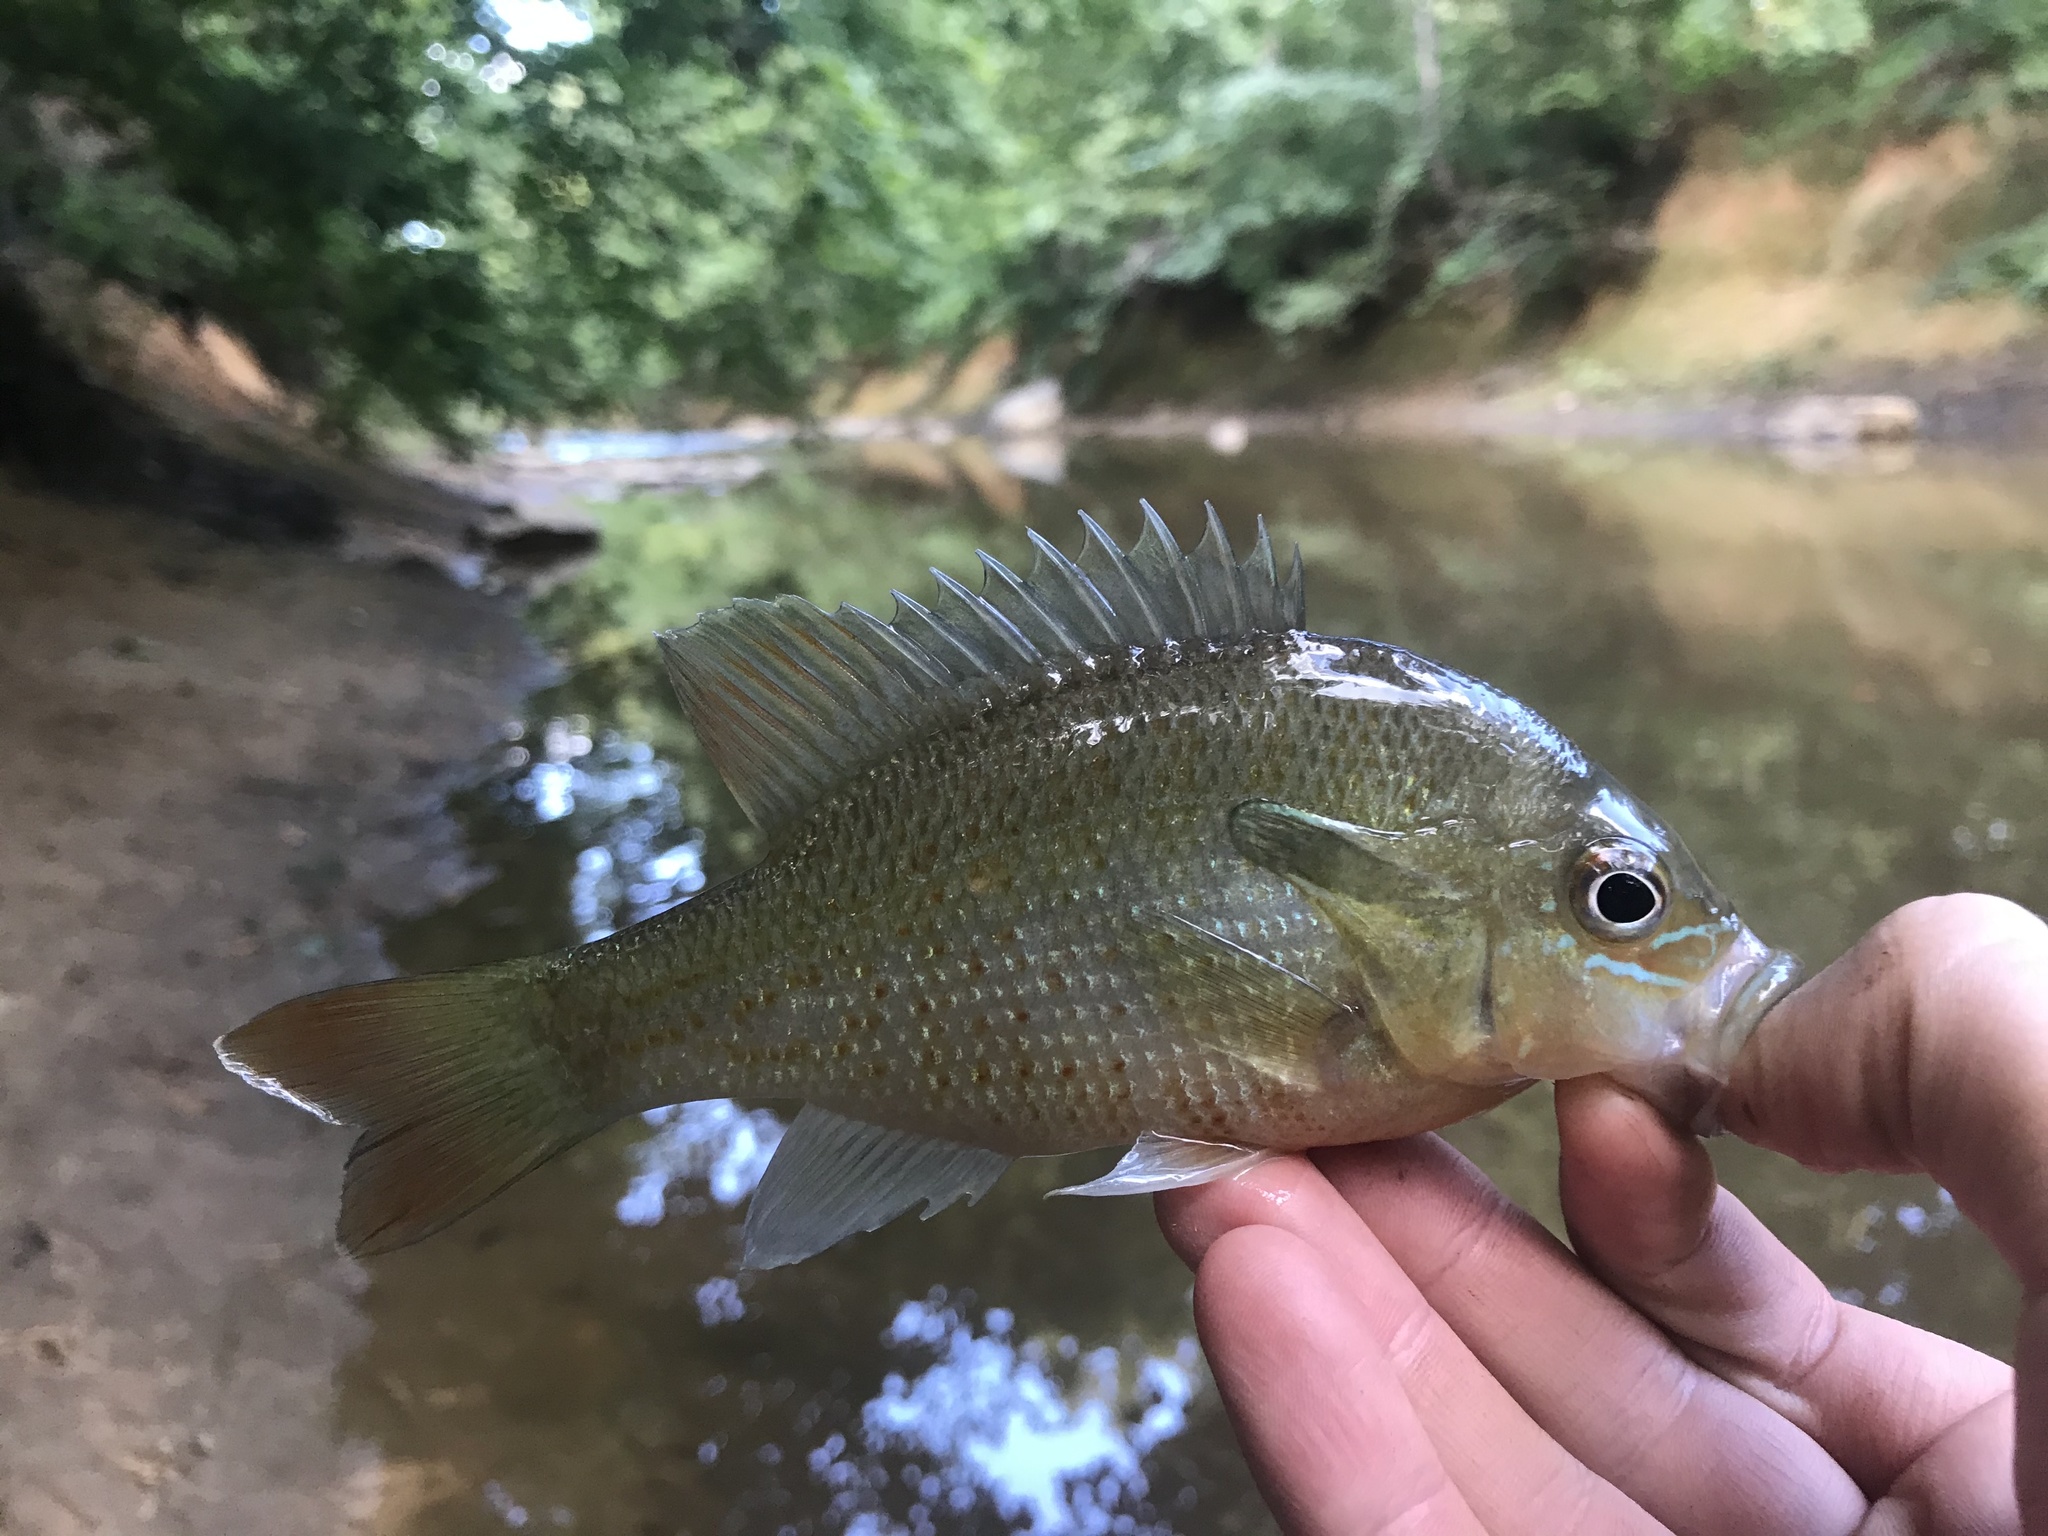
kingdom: Animalia
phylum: Chordata
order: Perciformes
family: Centrarchidae
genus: Lepomis
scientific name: Lepomis auritus
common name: Redbreast sunfish
